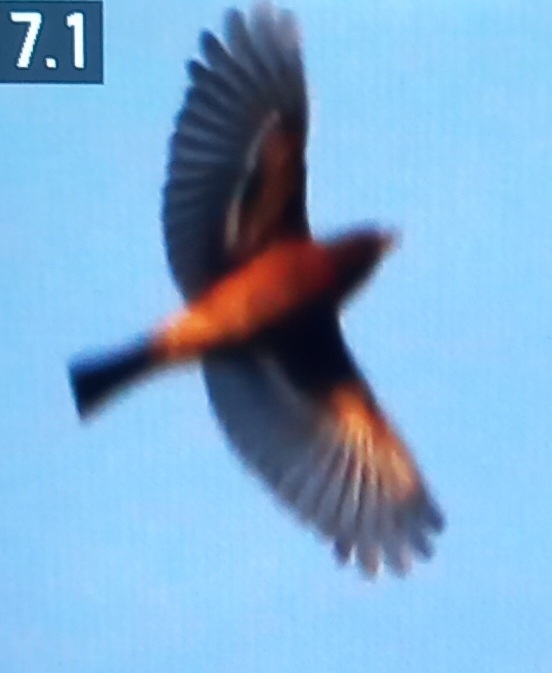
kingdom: Animalia
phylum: Chordata
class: Aves
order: Passeriformes
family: Fringillidae
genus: Fringilla
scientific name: Fringilla coelebs
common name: Common chaffinch
